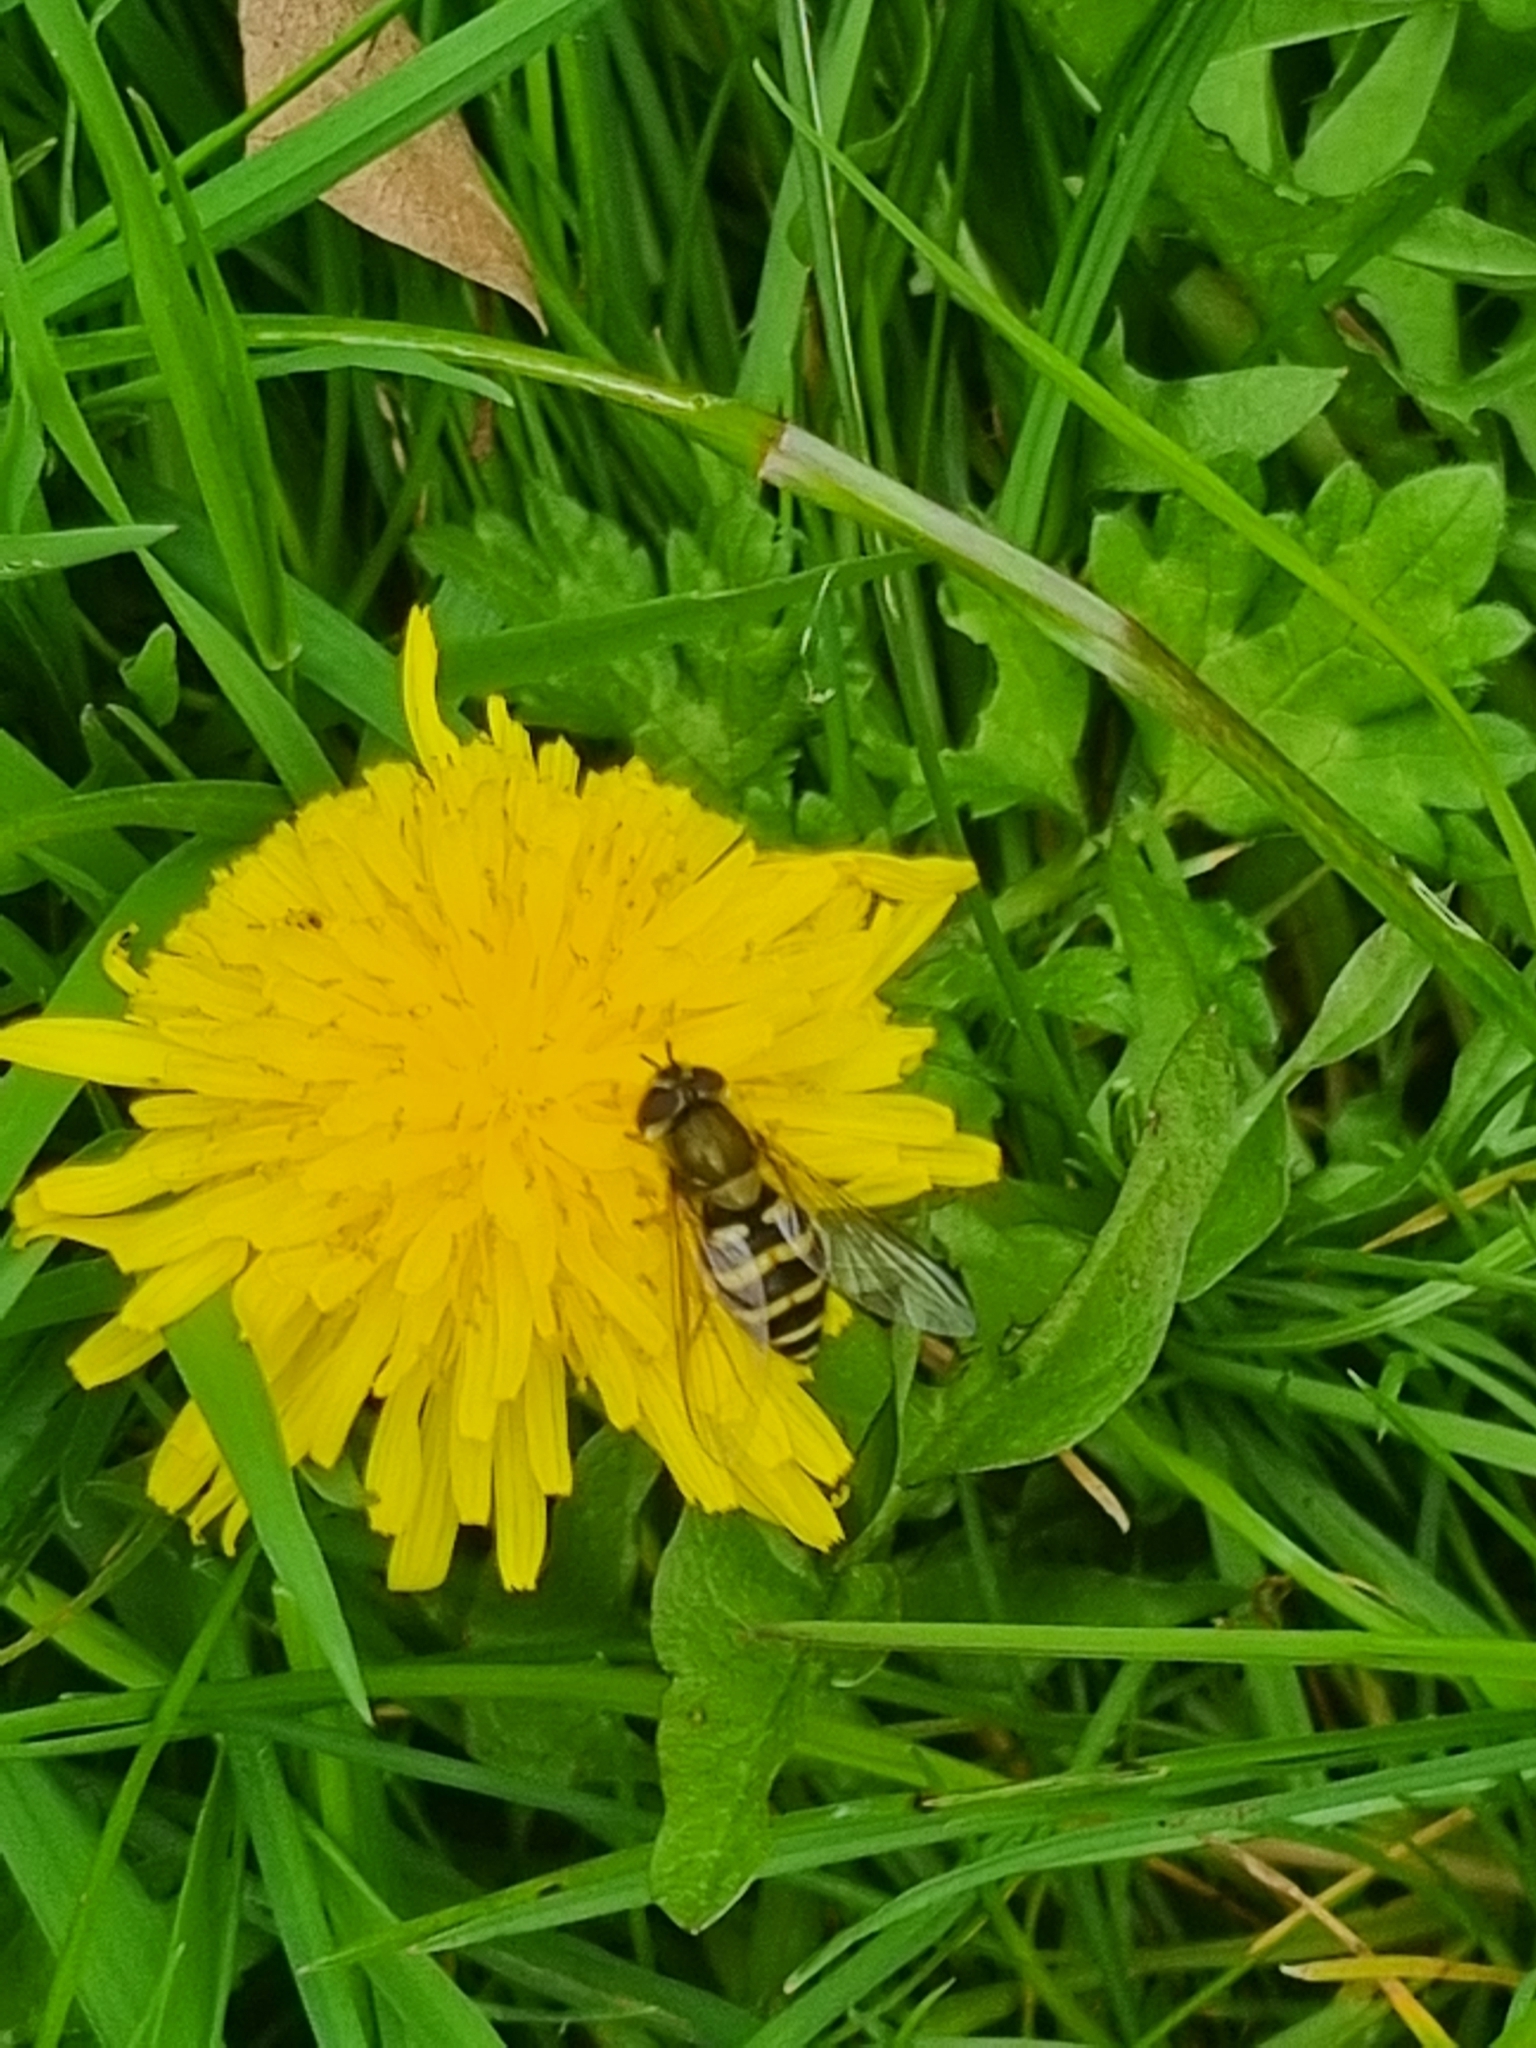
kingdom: Animalia
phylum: Arthropoda
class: Insecta
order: Diptera
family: Syrphidae
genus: Syrphus
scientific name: Syrphus
